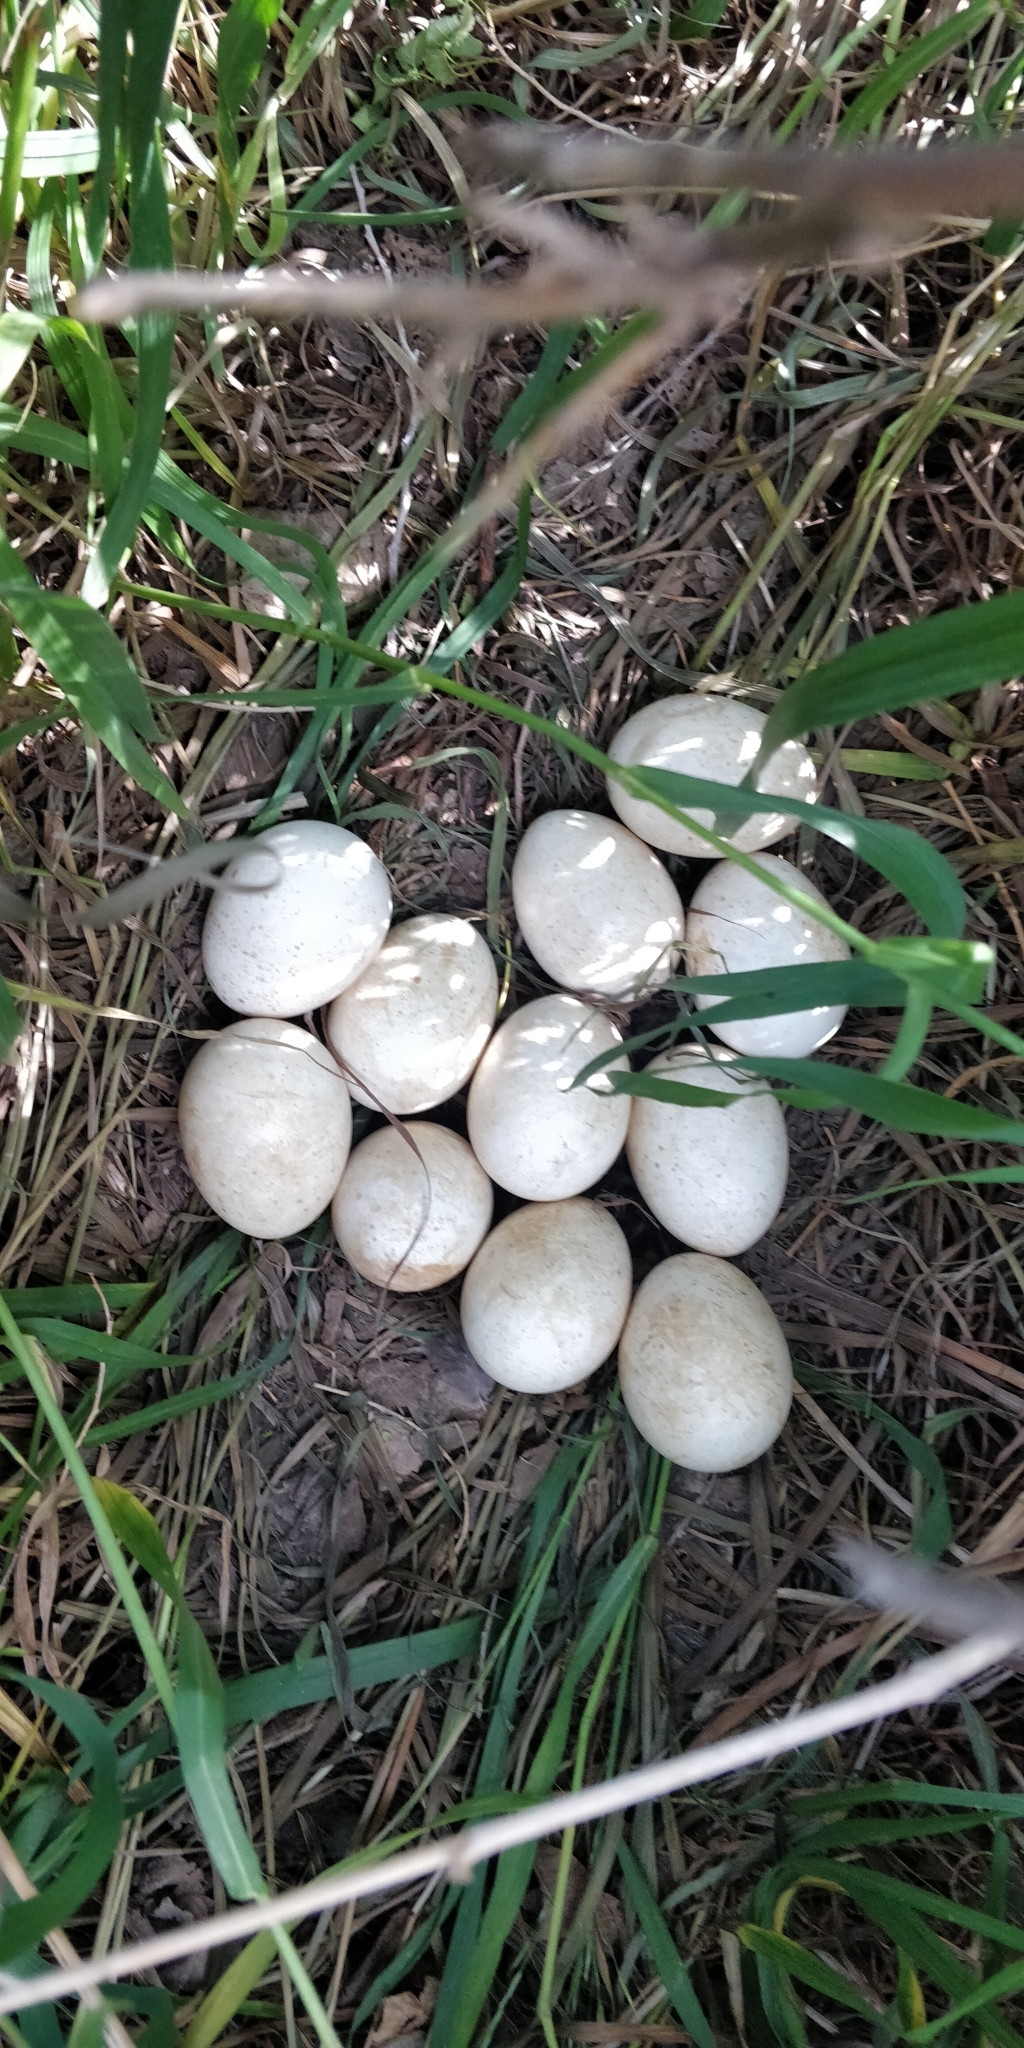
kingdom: Animalia
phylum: Chordata
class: Aves
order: Galliformes
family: Phasianidae
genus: Meleagris
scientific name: Meleagris gallopavo
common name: Wild turkey
